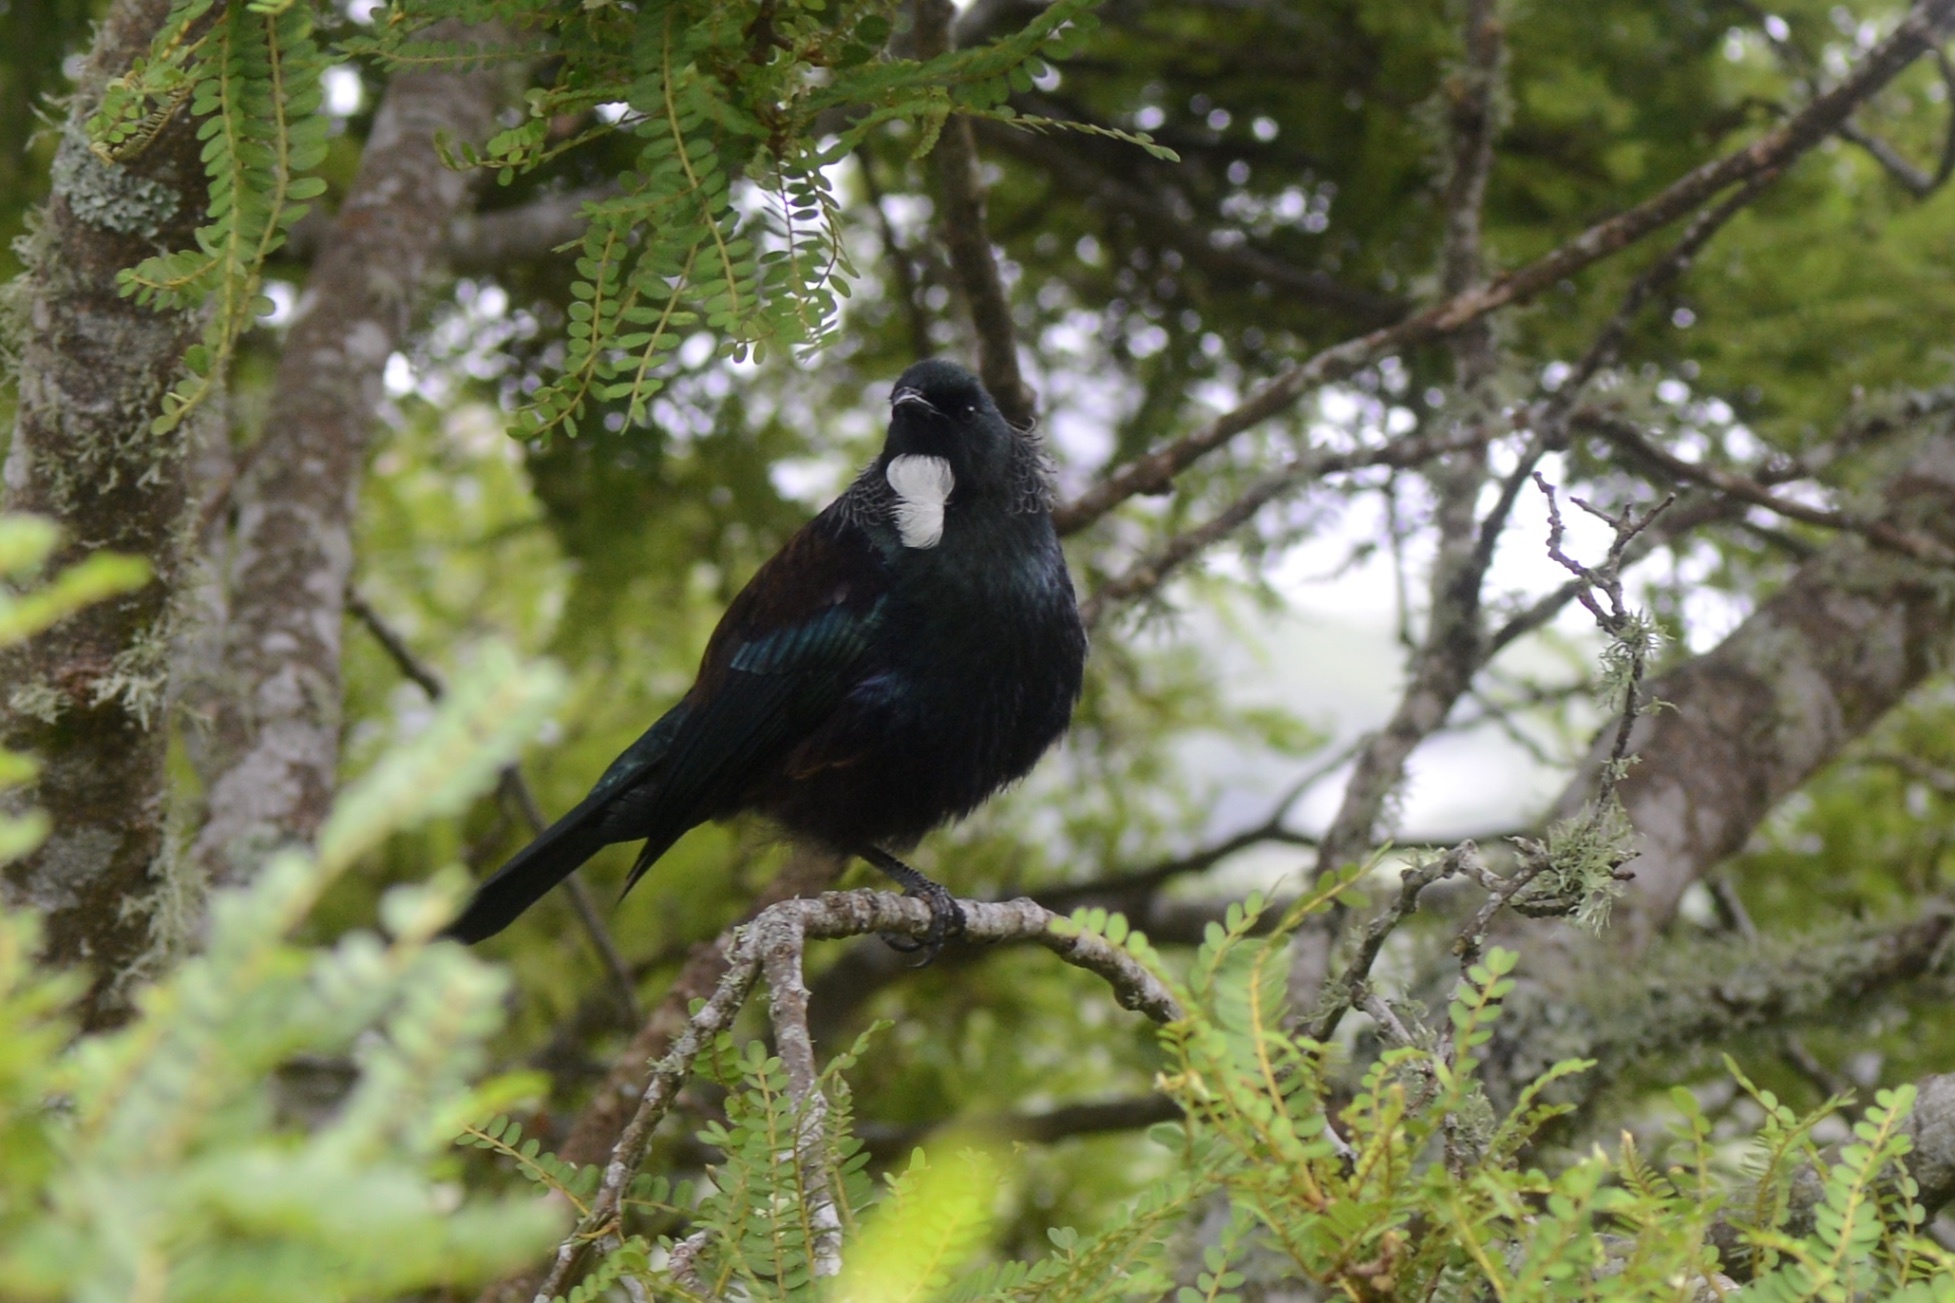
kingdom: Animalia
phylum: Chordata
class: Aves
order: Passeriformes
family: Meliphagidae
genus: Prosthemadera
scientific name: Prosthemadera novaeseelandiae
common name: Tui
